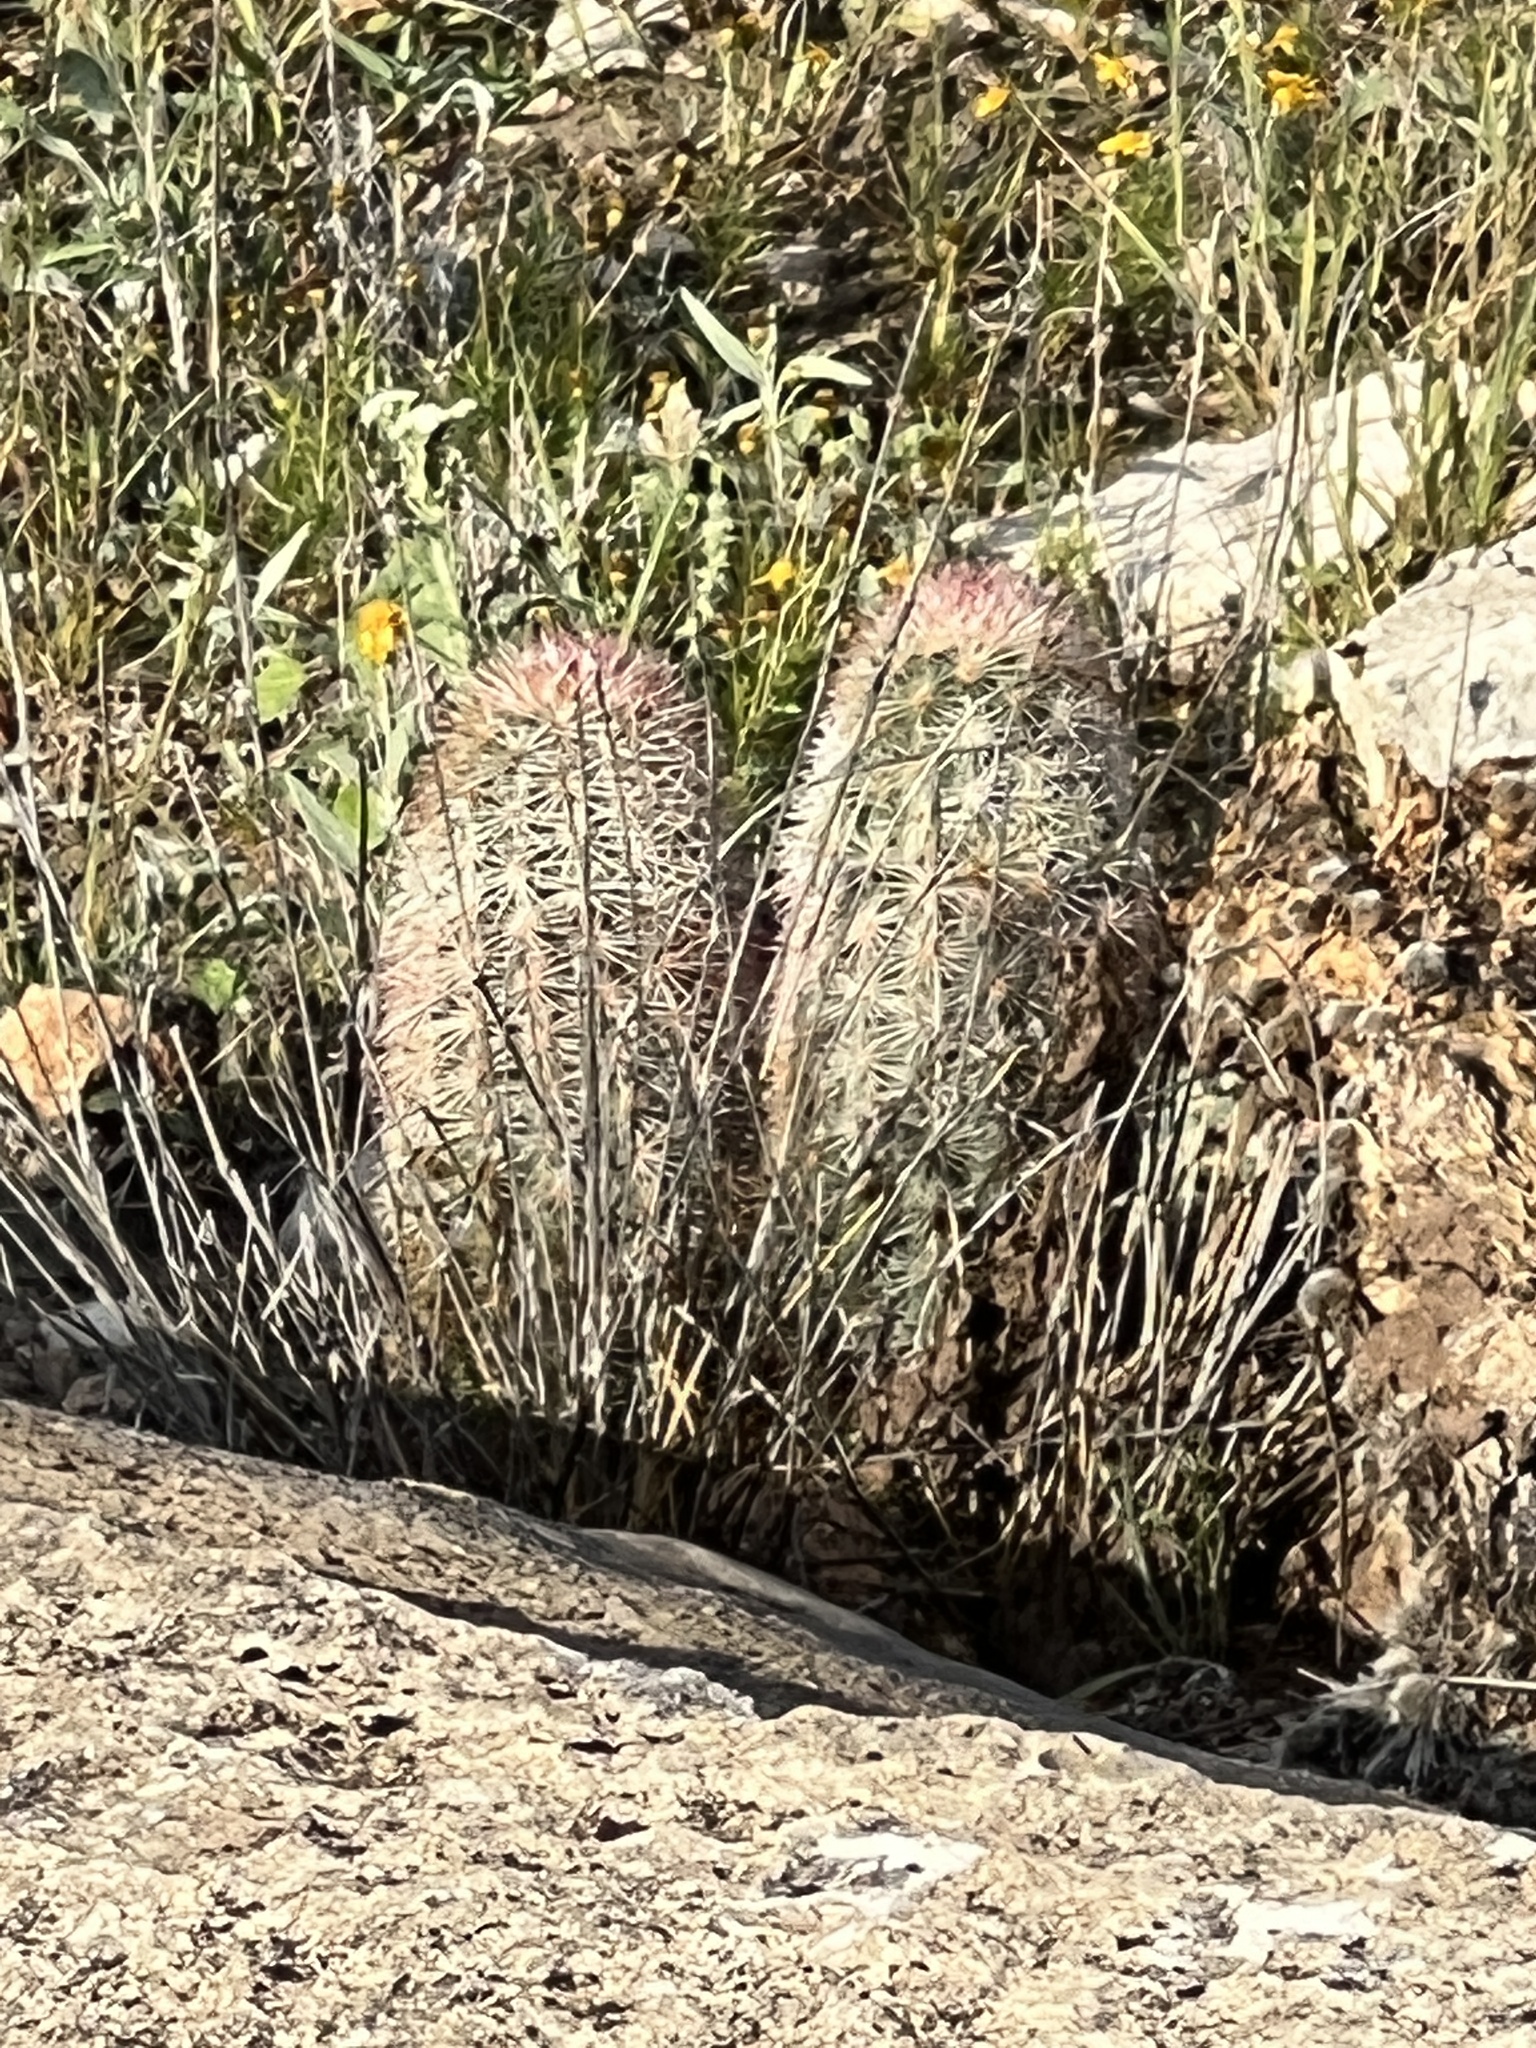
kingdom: Plantae
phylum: Tracheophyta
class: Magnoliopsida
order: Caryophyllales
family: Cactaceae
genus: Echinocereus
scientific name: Echinocereus dasyacanthus
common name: Spiny hedgehog cactus
